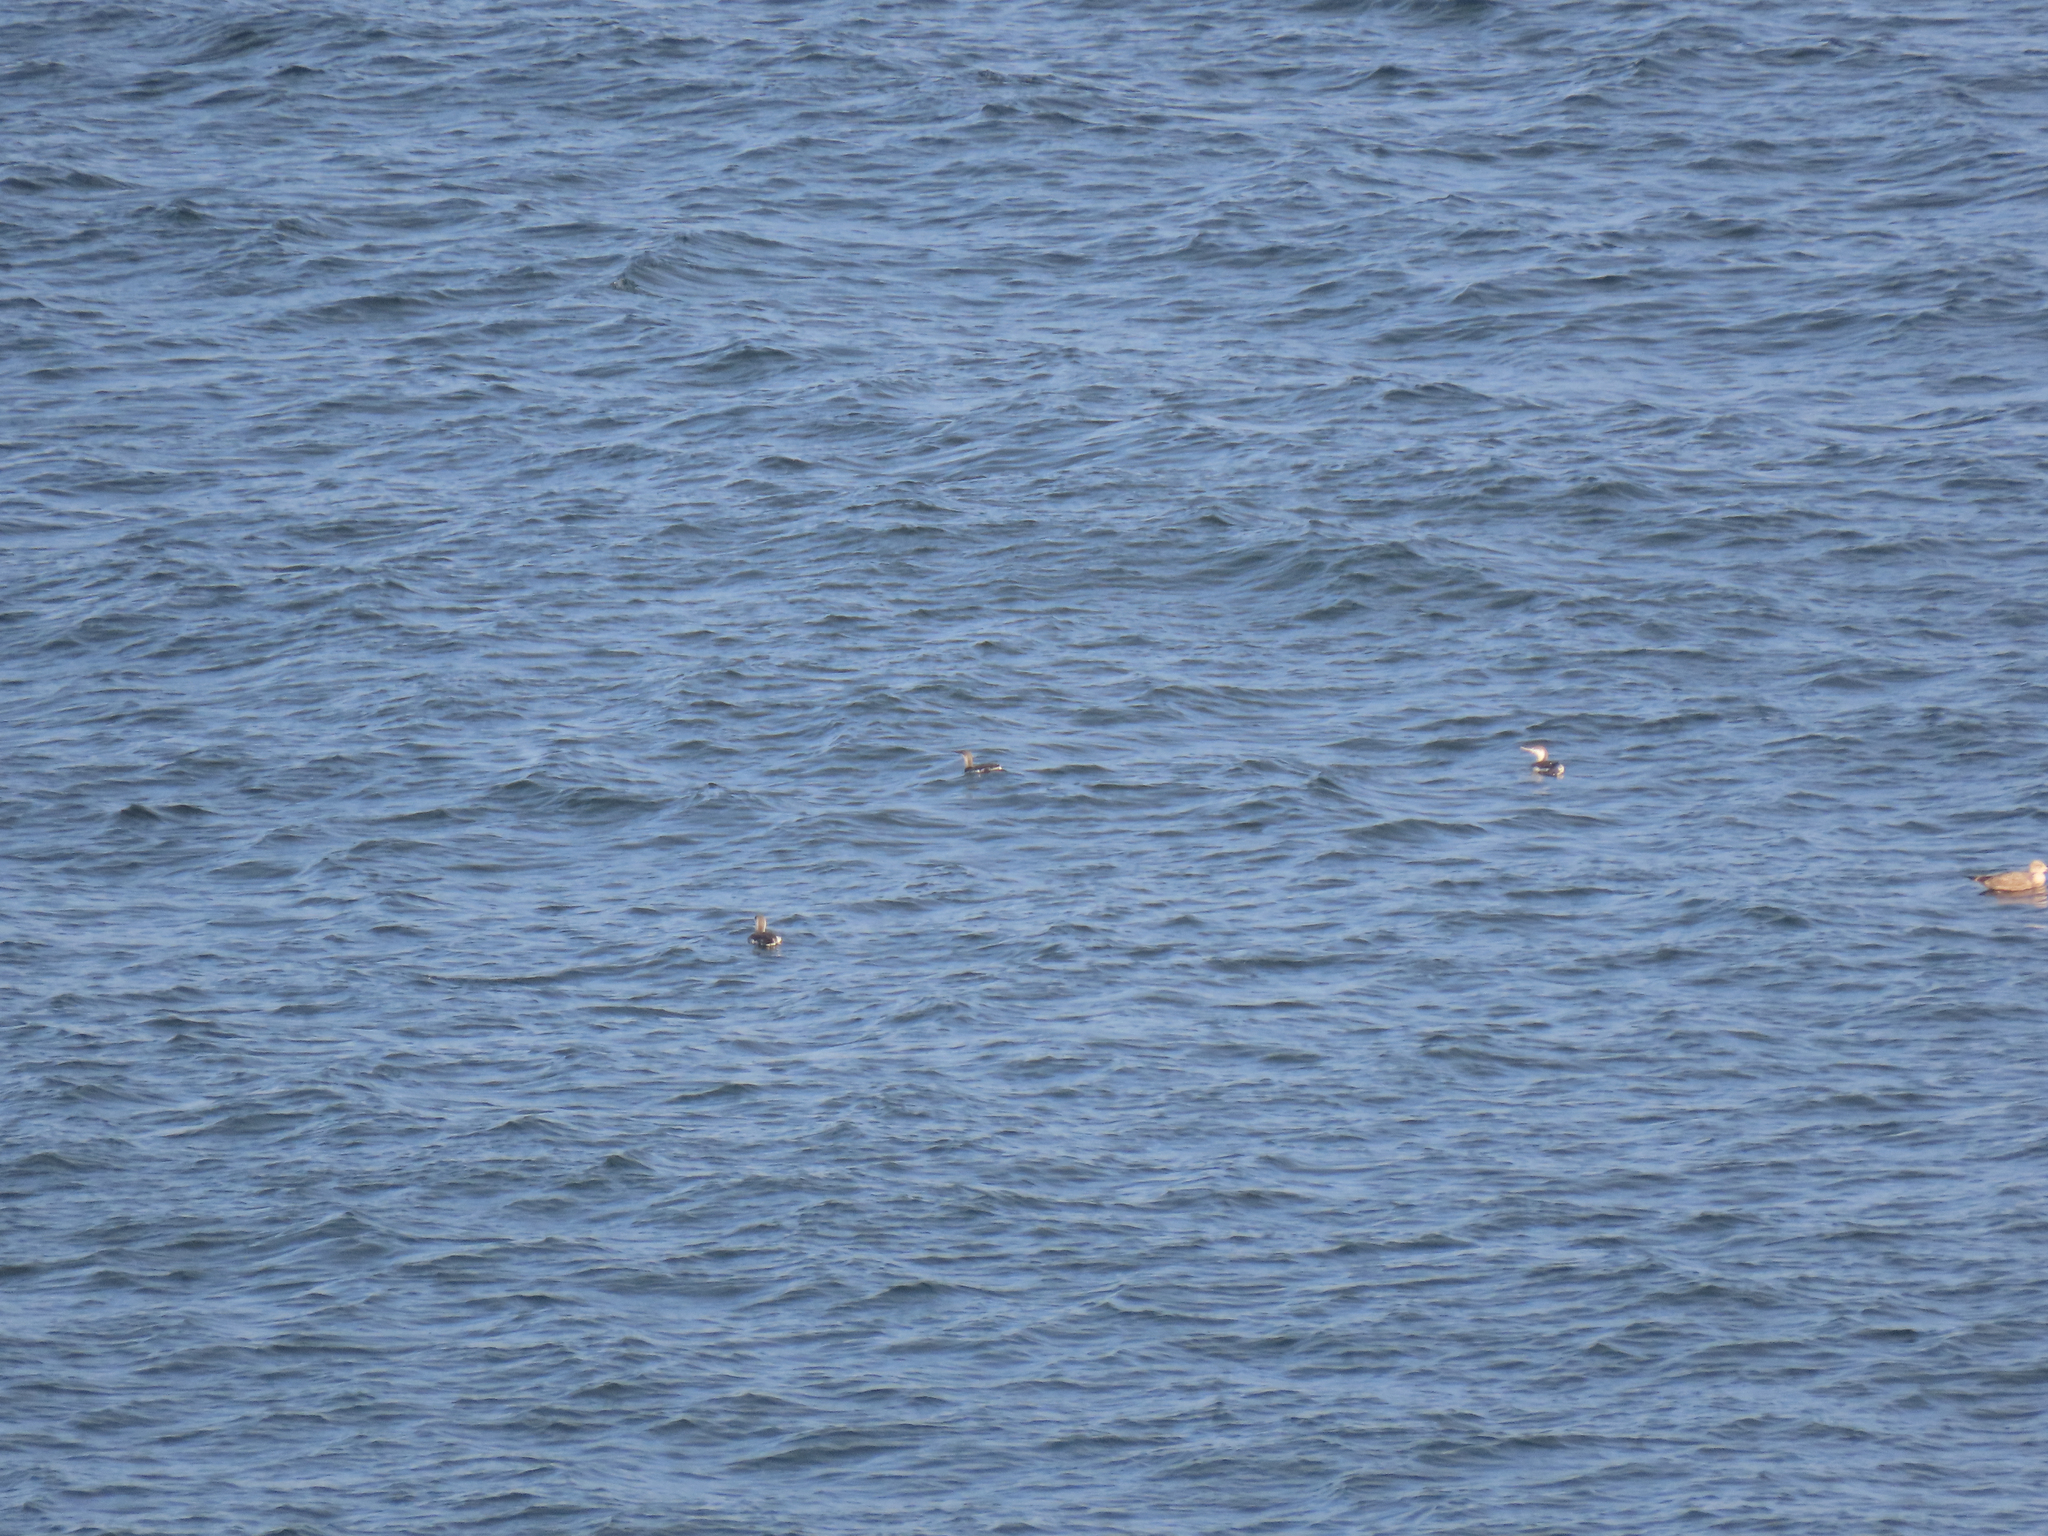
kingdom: Animalia
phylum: Chordata
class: Aves
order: Gaviiformes
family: Gaviidae
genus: Gavia
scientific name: Gavia stellata
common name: Red-throated loon
